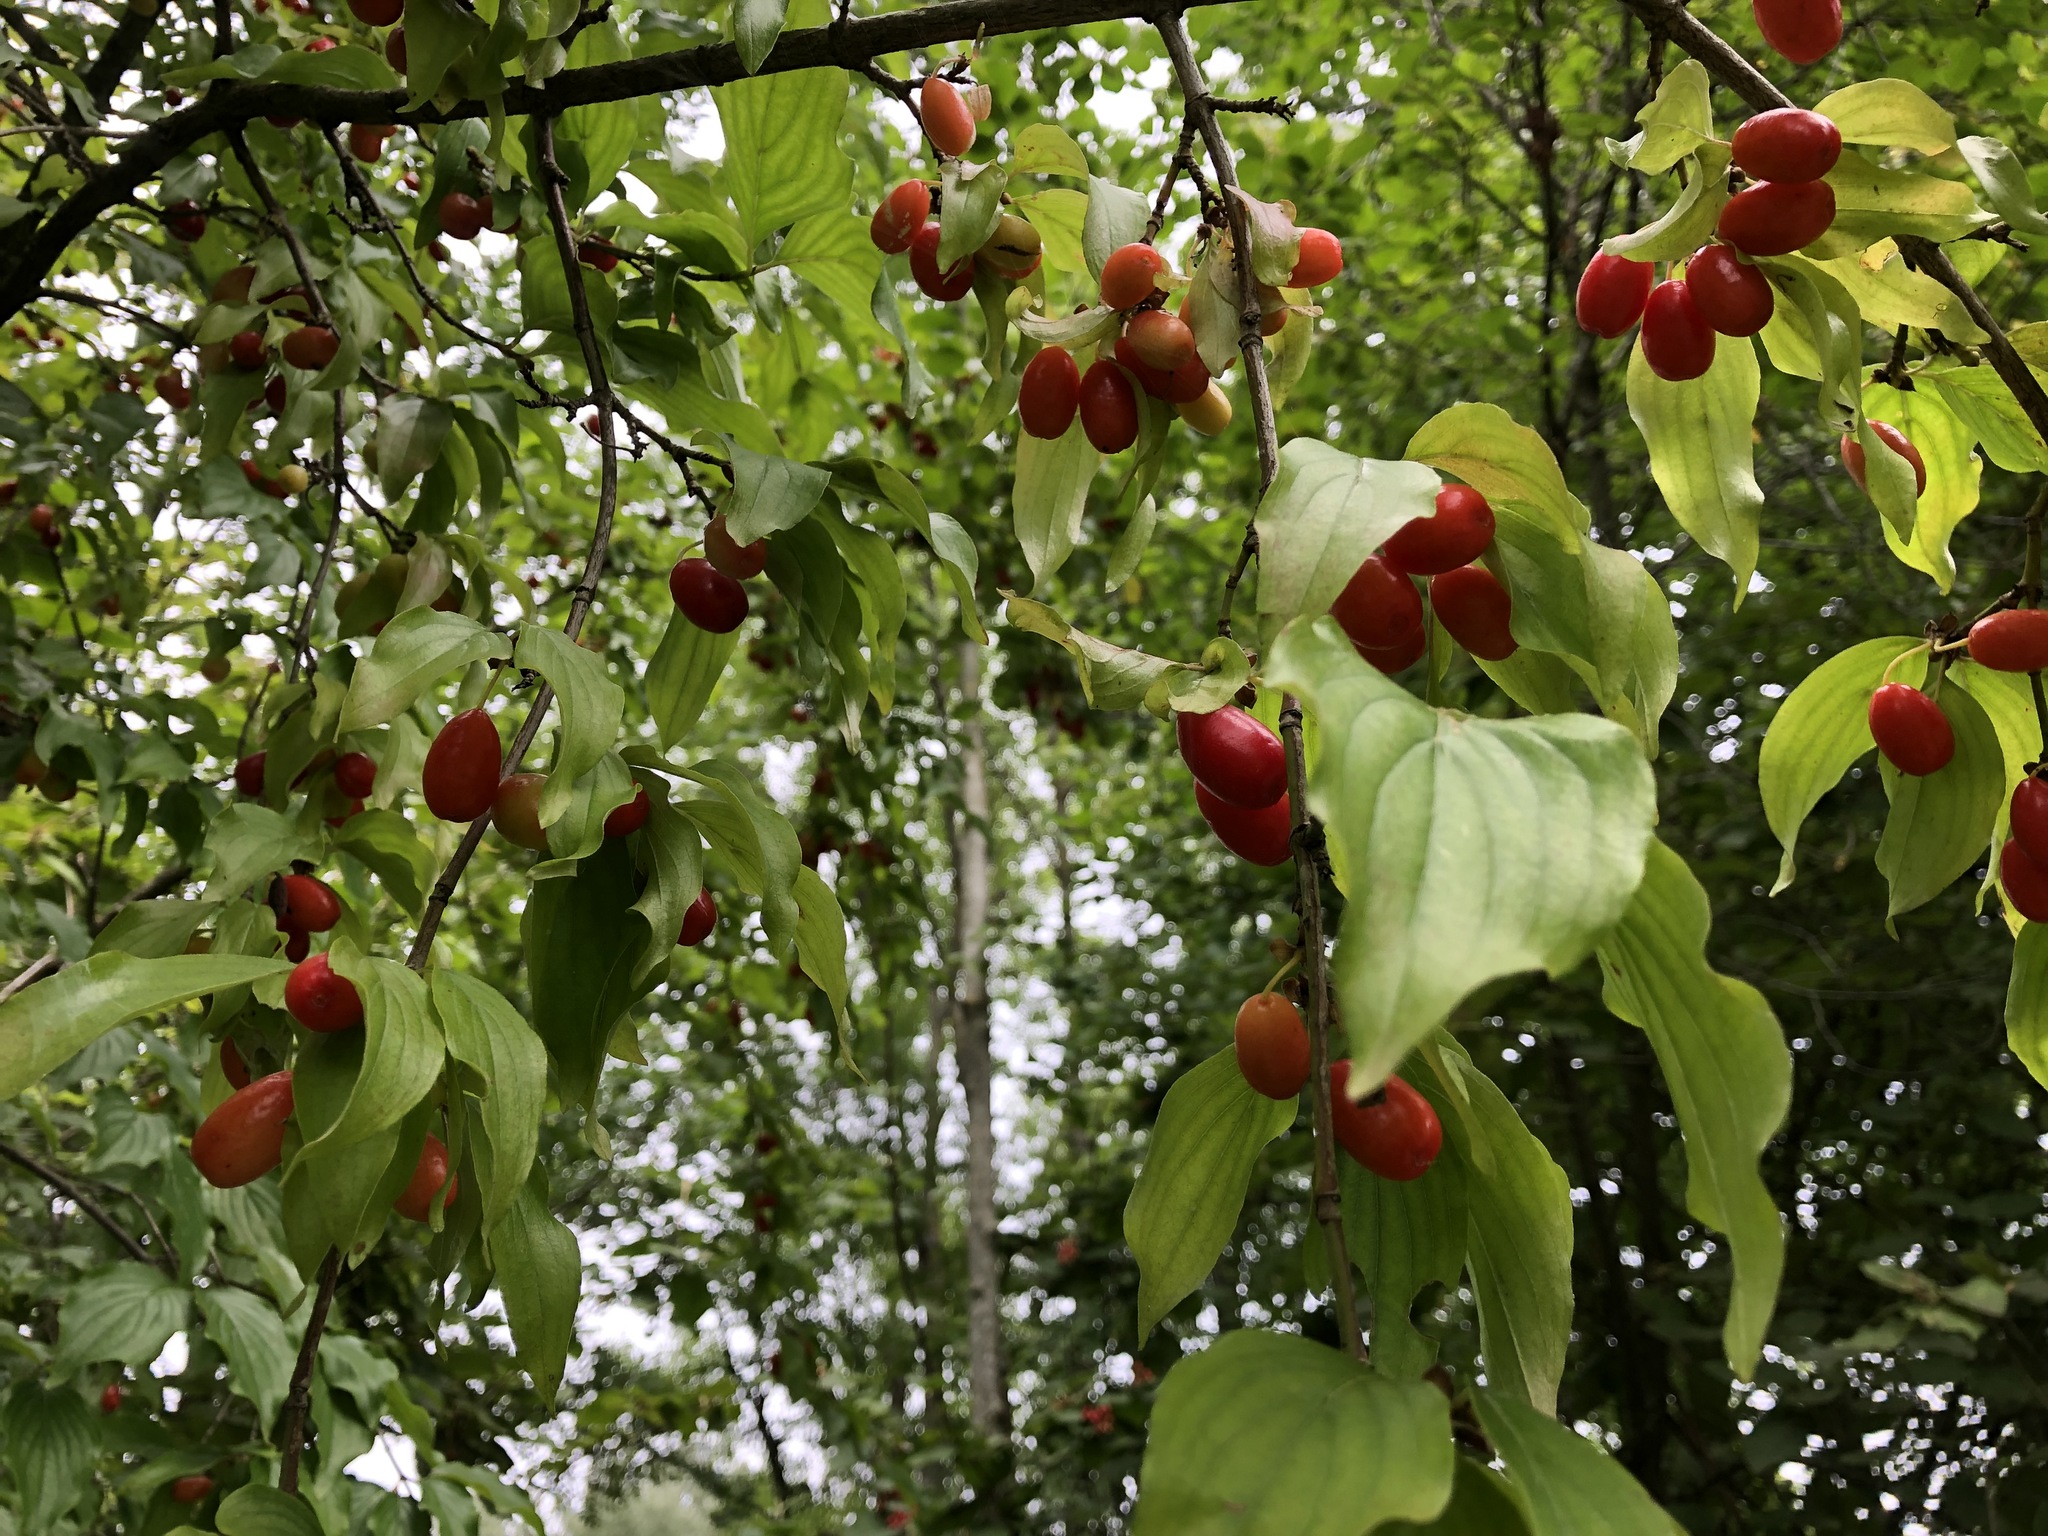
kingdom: Plantae
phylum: Tracheophyta
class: Magnoliopsida
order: Cornales
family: Cornaceae
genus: Cornus
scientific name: Cornus mas
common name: Cornelian-cherry
